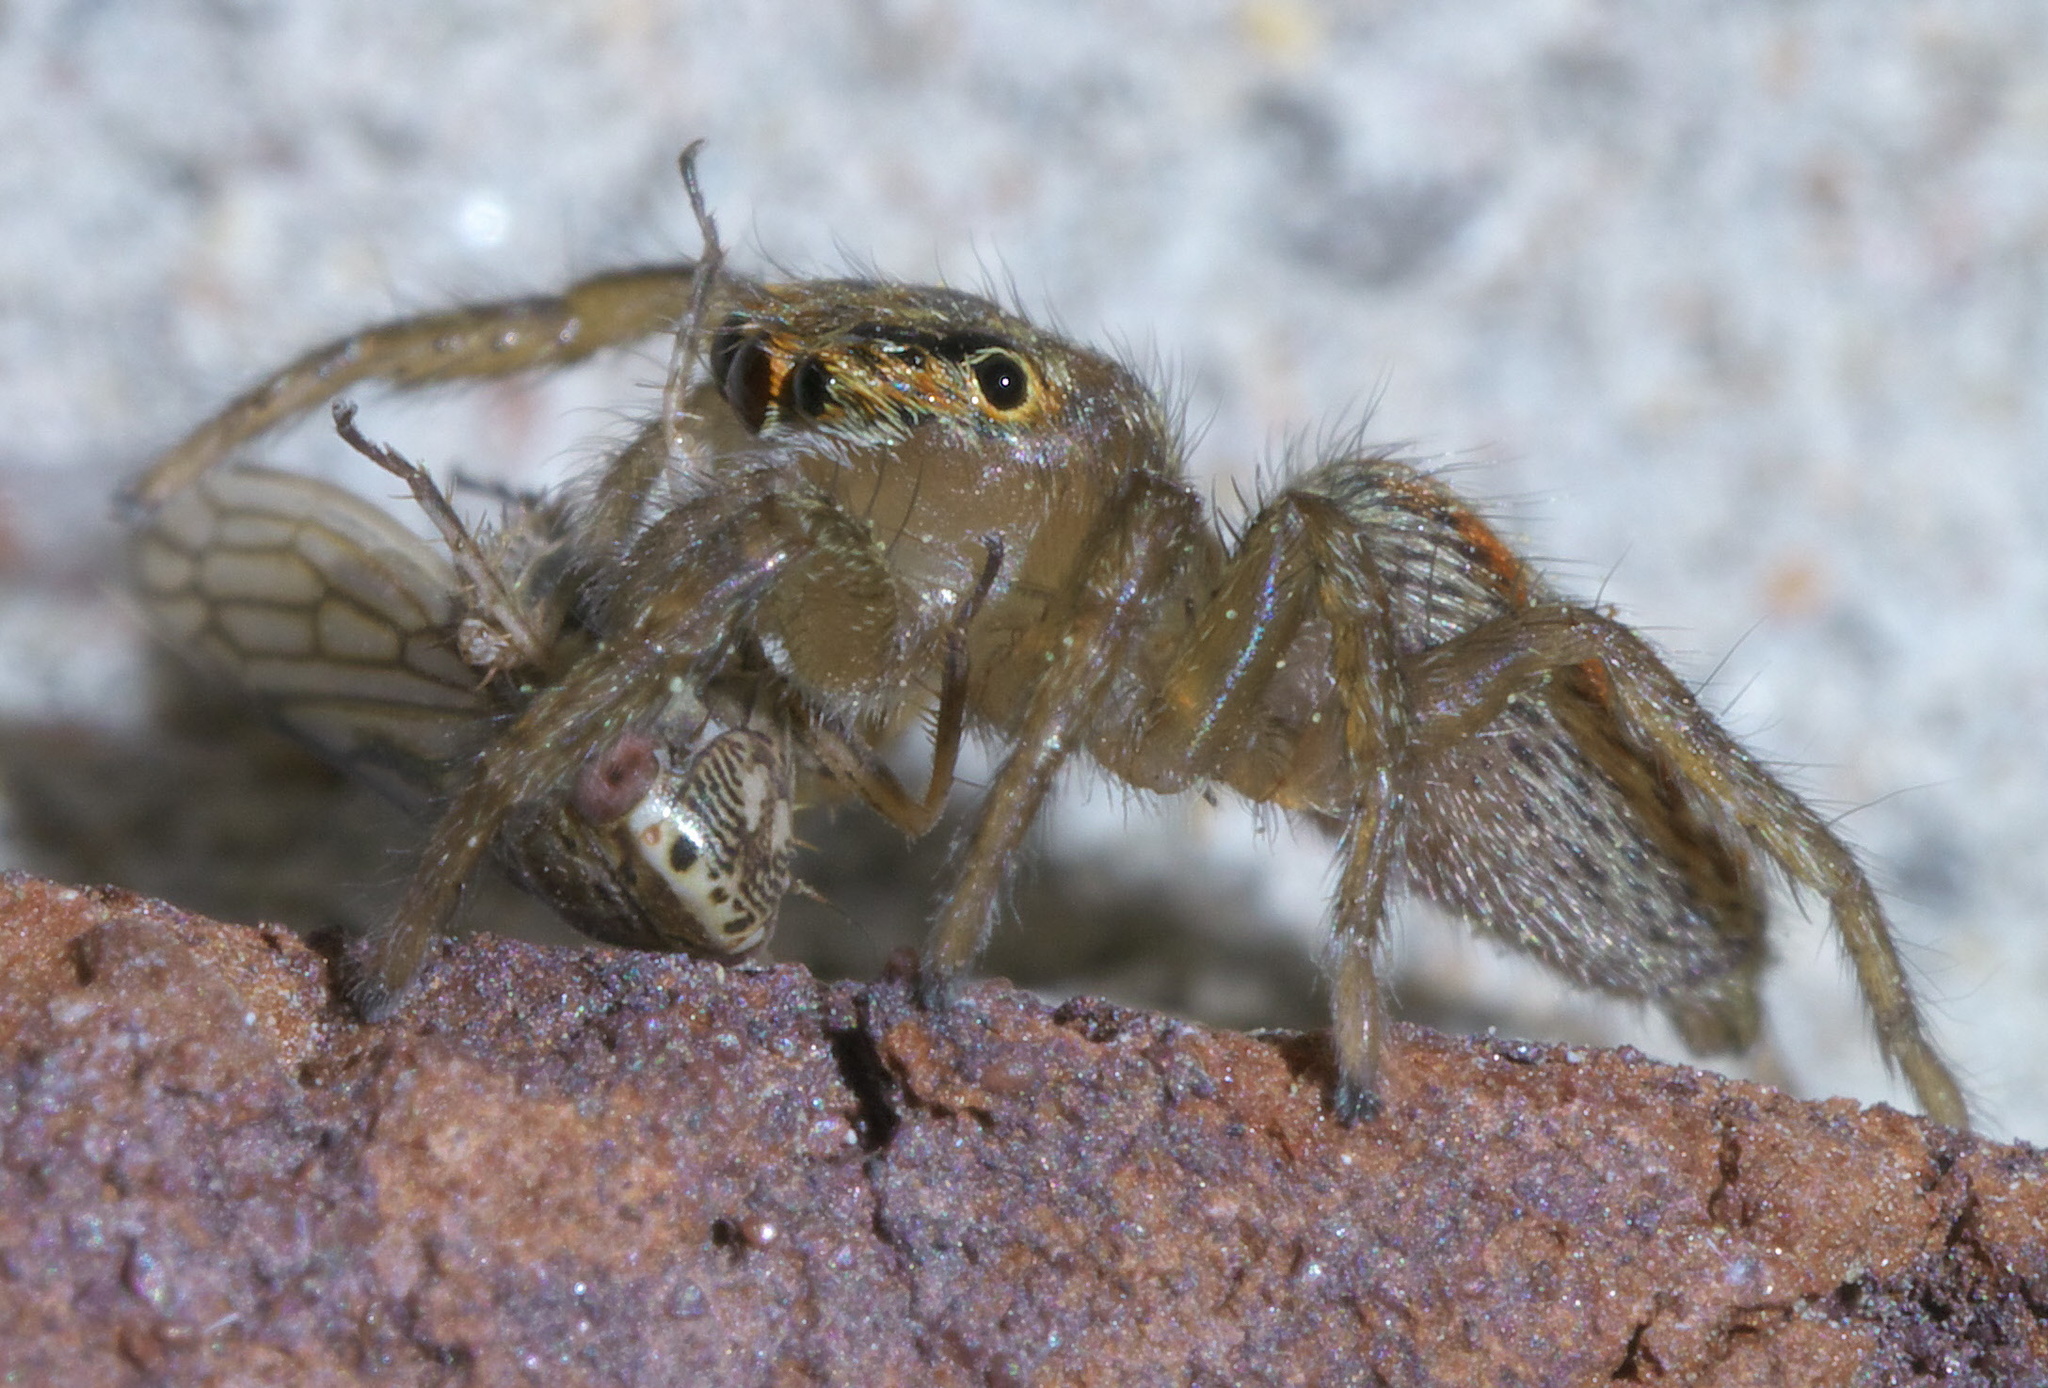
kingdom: Animalia
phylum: Arthropoda
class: Arachnida
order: Araneae
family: Salticidae
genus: Maevia
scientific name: Maevia inclemens
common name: Dimorphic jumper
